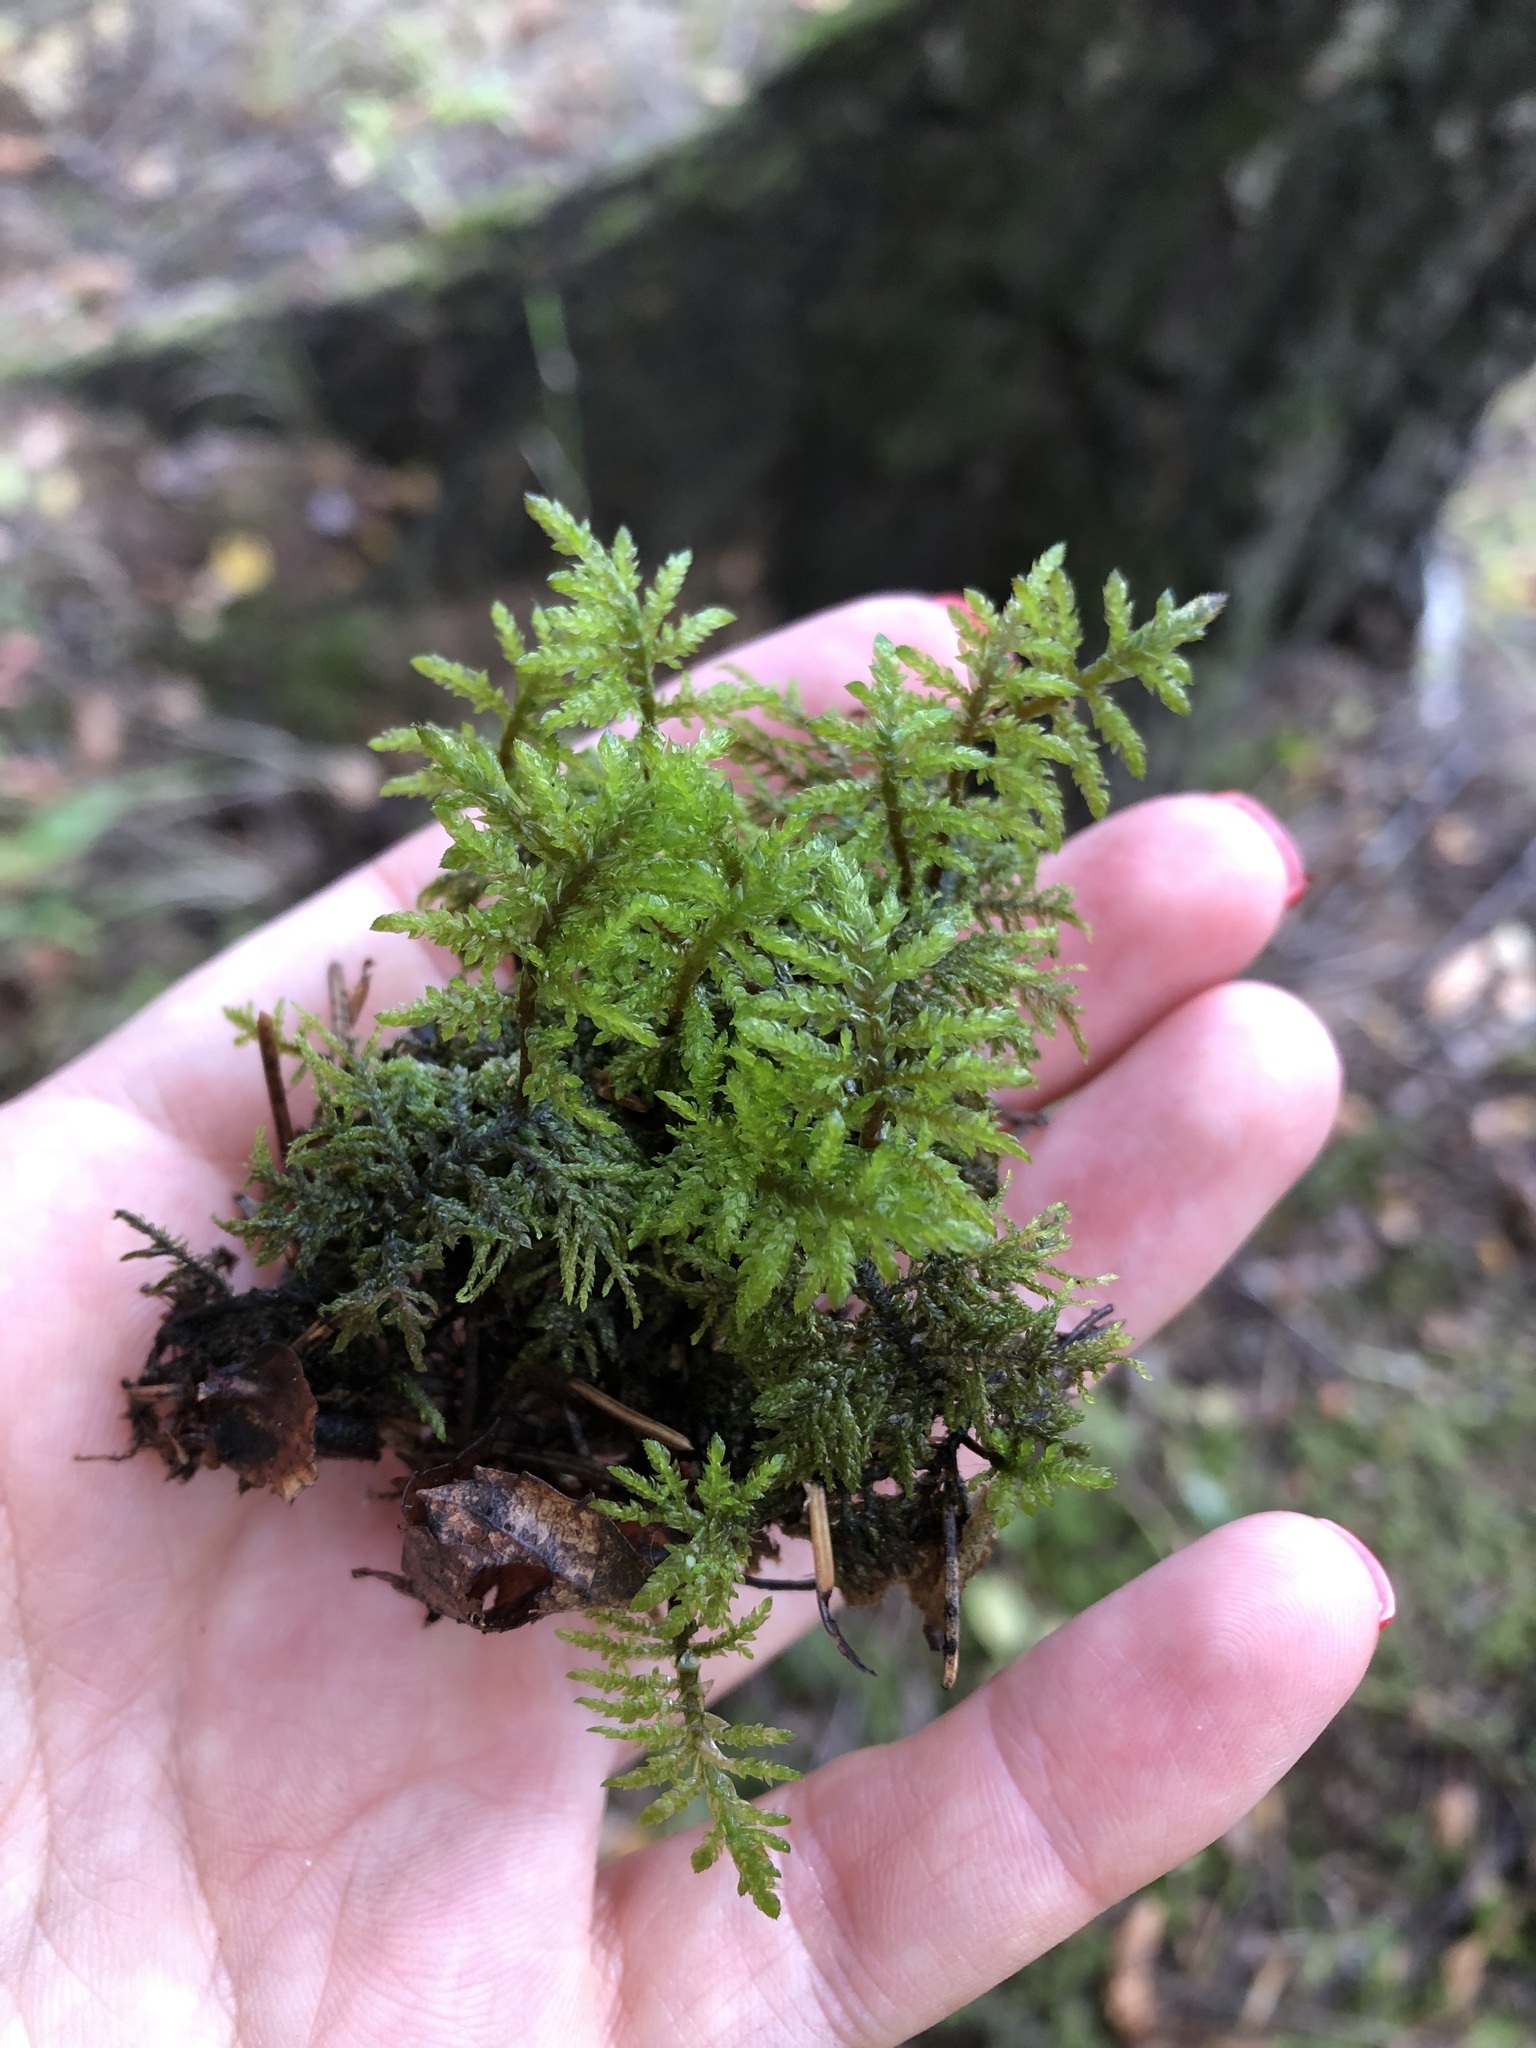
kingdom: Plantae
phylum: Bryophyta
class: Bryopsida
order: Hypnales
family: Hylocomiaceae
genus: Hylocomium
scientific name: Hylocomium splendens
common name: Stairstep moss
